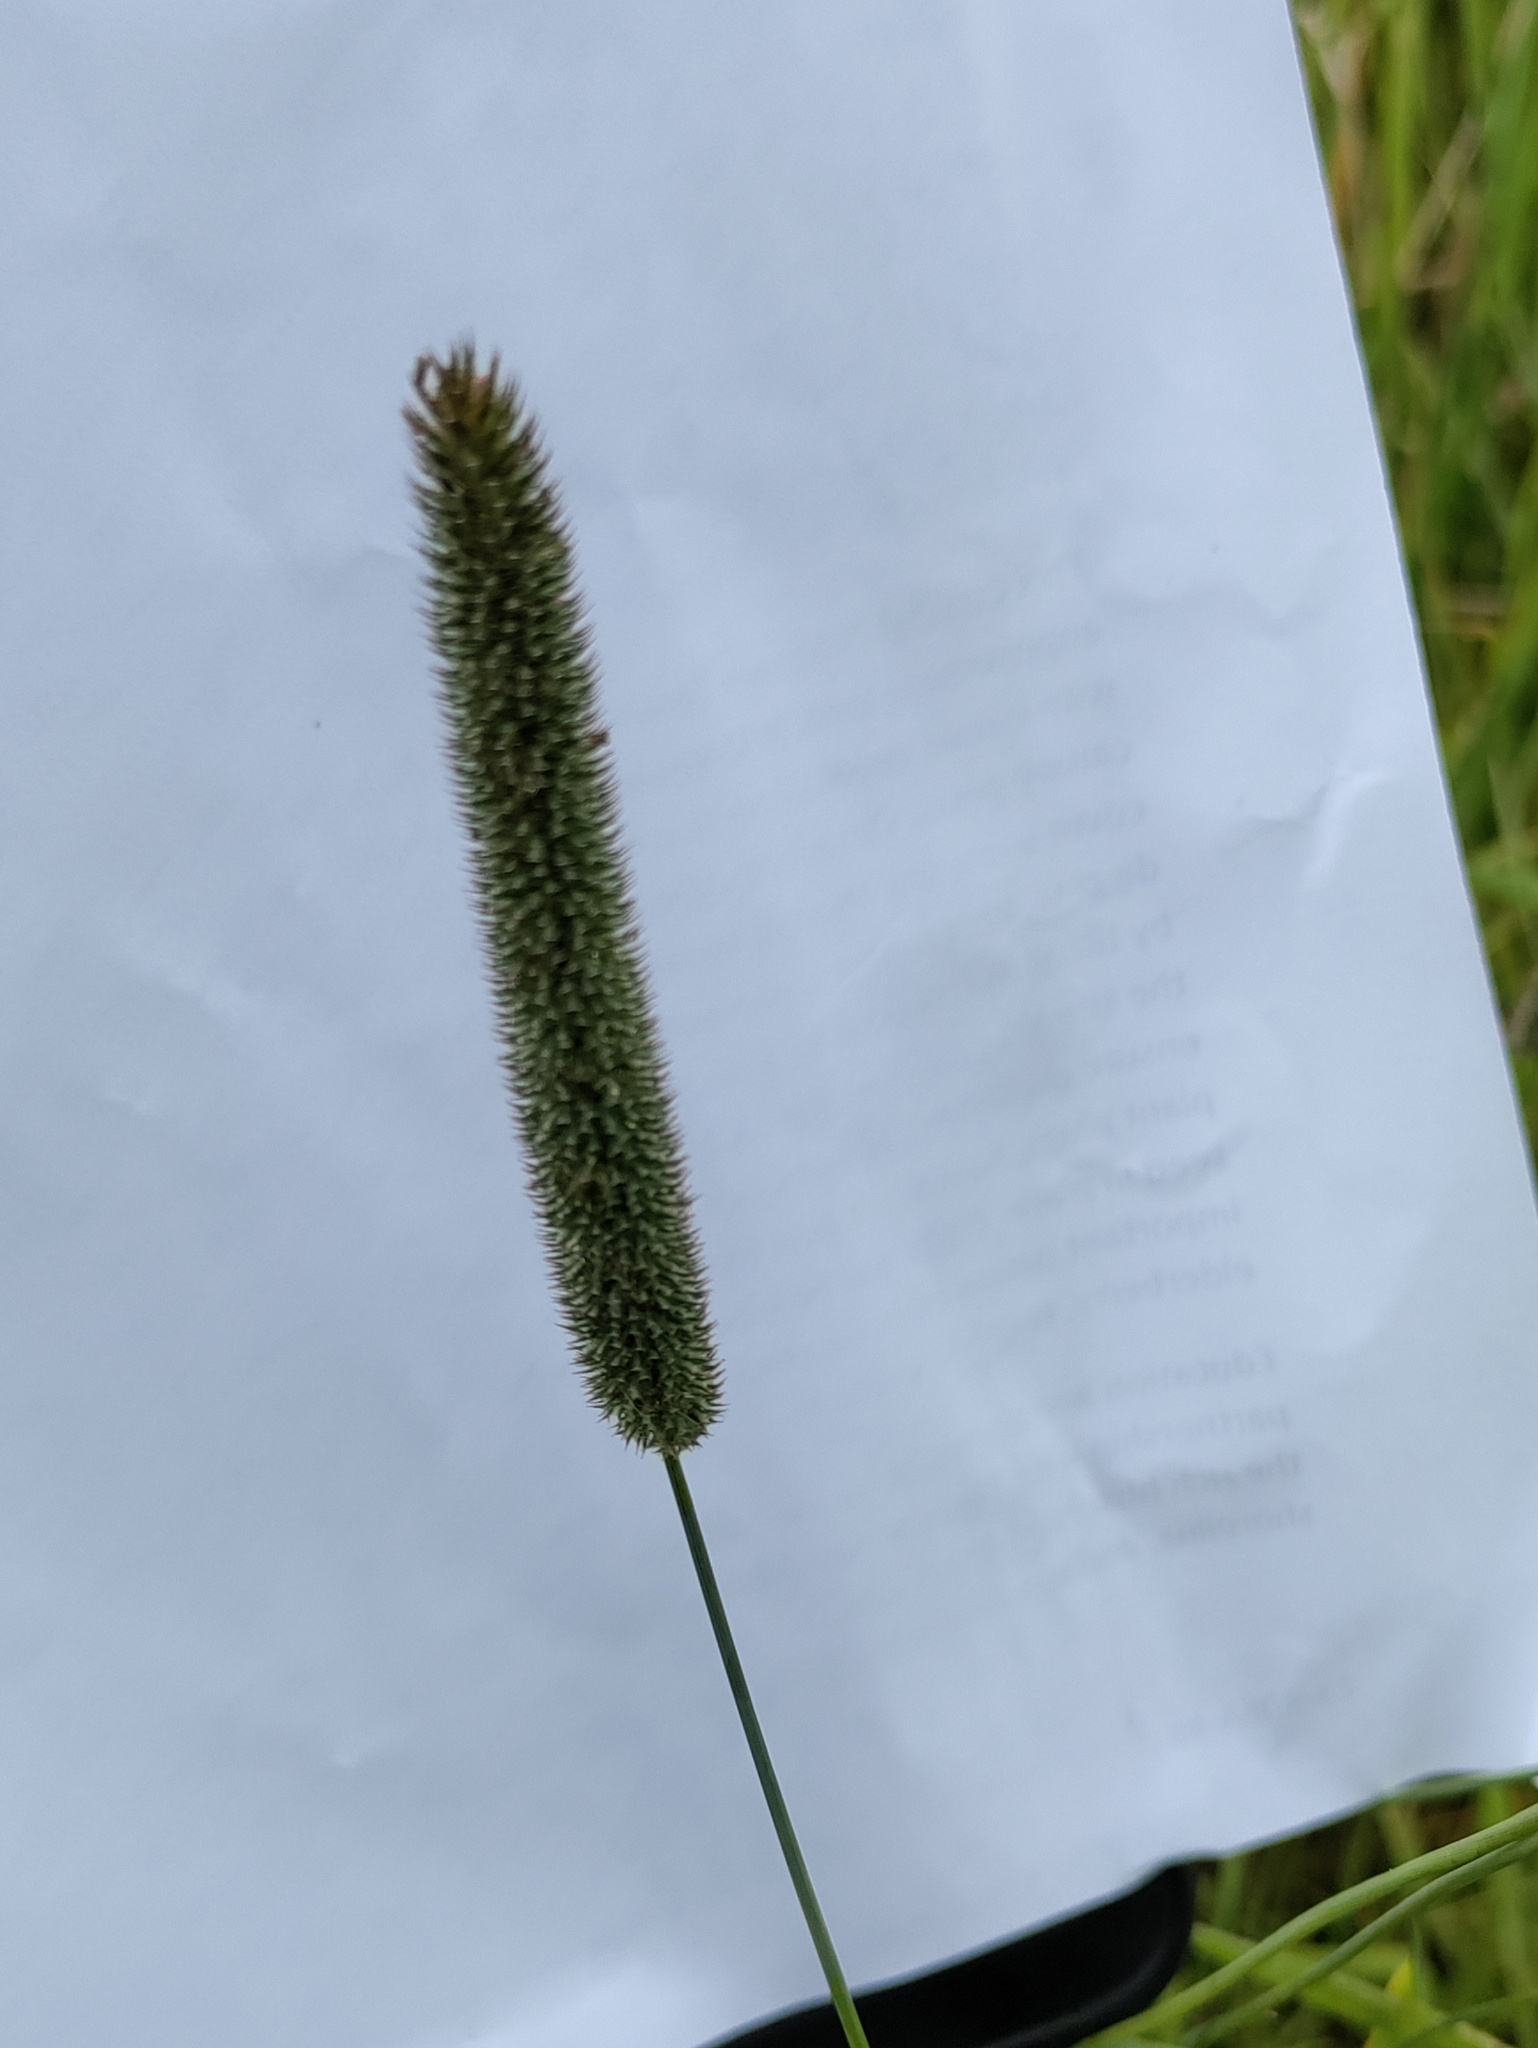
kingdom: Plantae
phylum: Tracheophyta
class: Liliopsida
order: Poales
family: Poaceae
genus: Phleum
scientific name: Phleum pratense
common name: Timothy grass
